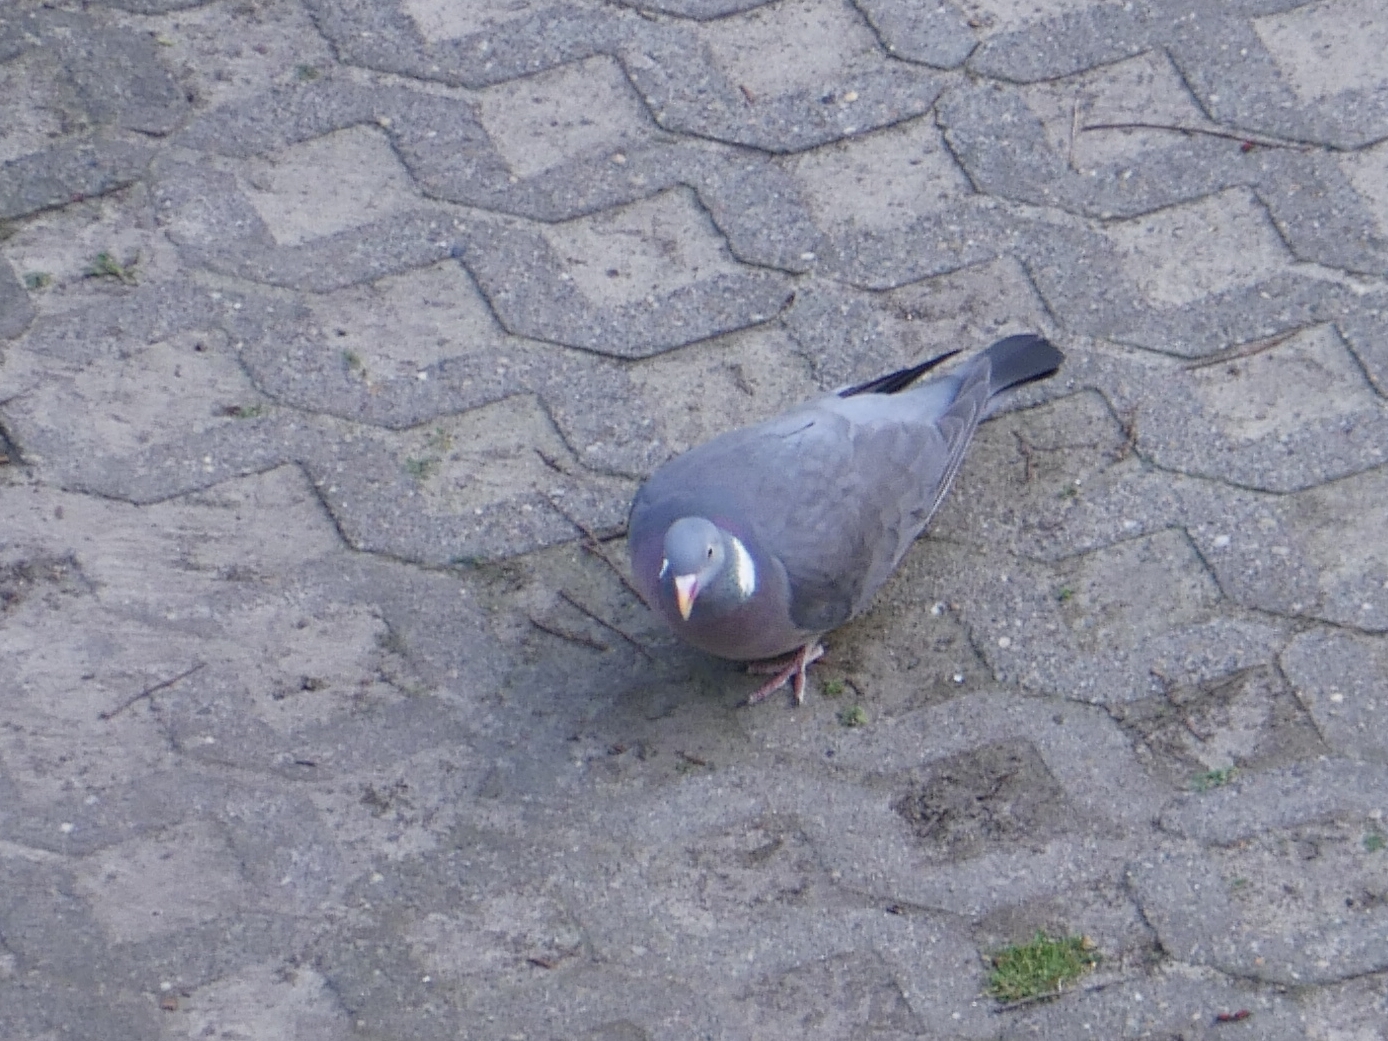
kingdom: Animalia
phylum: Chordata
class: Aves
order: Columbiformes
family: Columbidae
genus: Columba
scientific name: Columba palumbus
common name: Common wood pigeon
